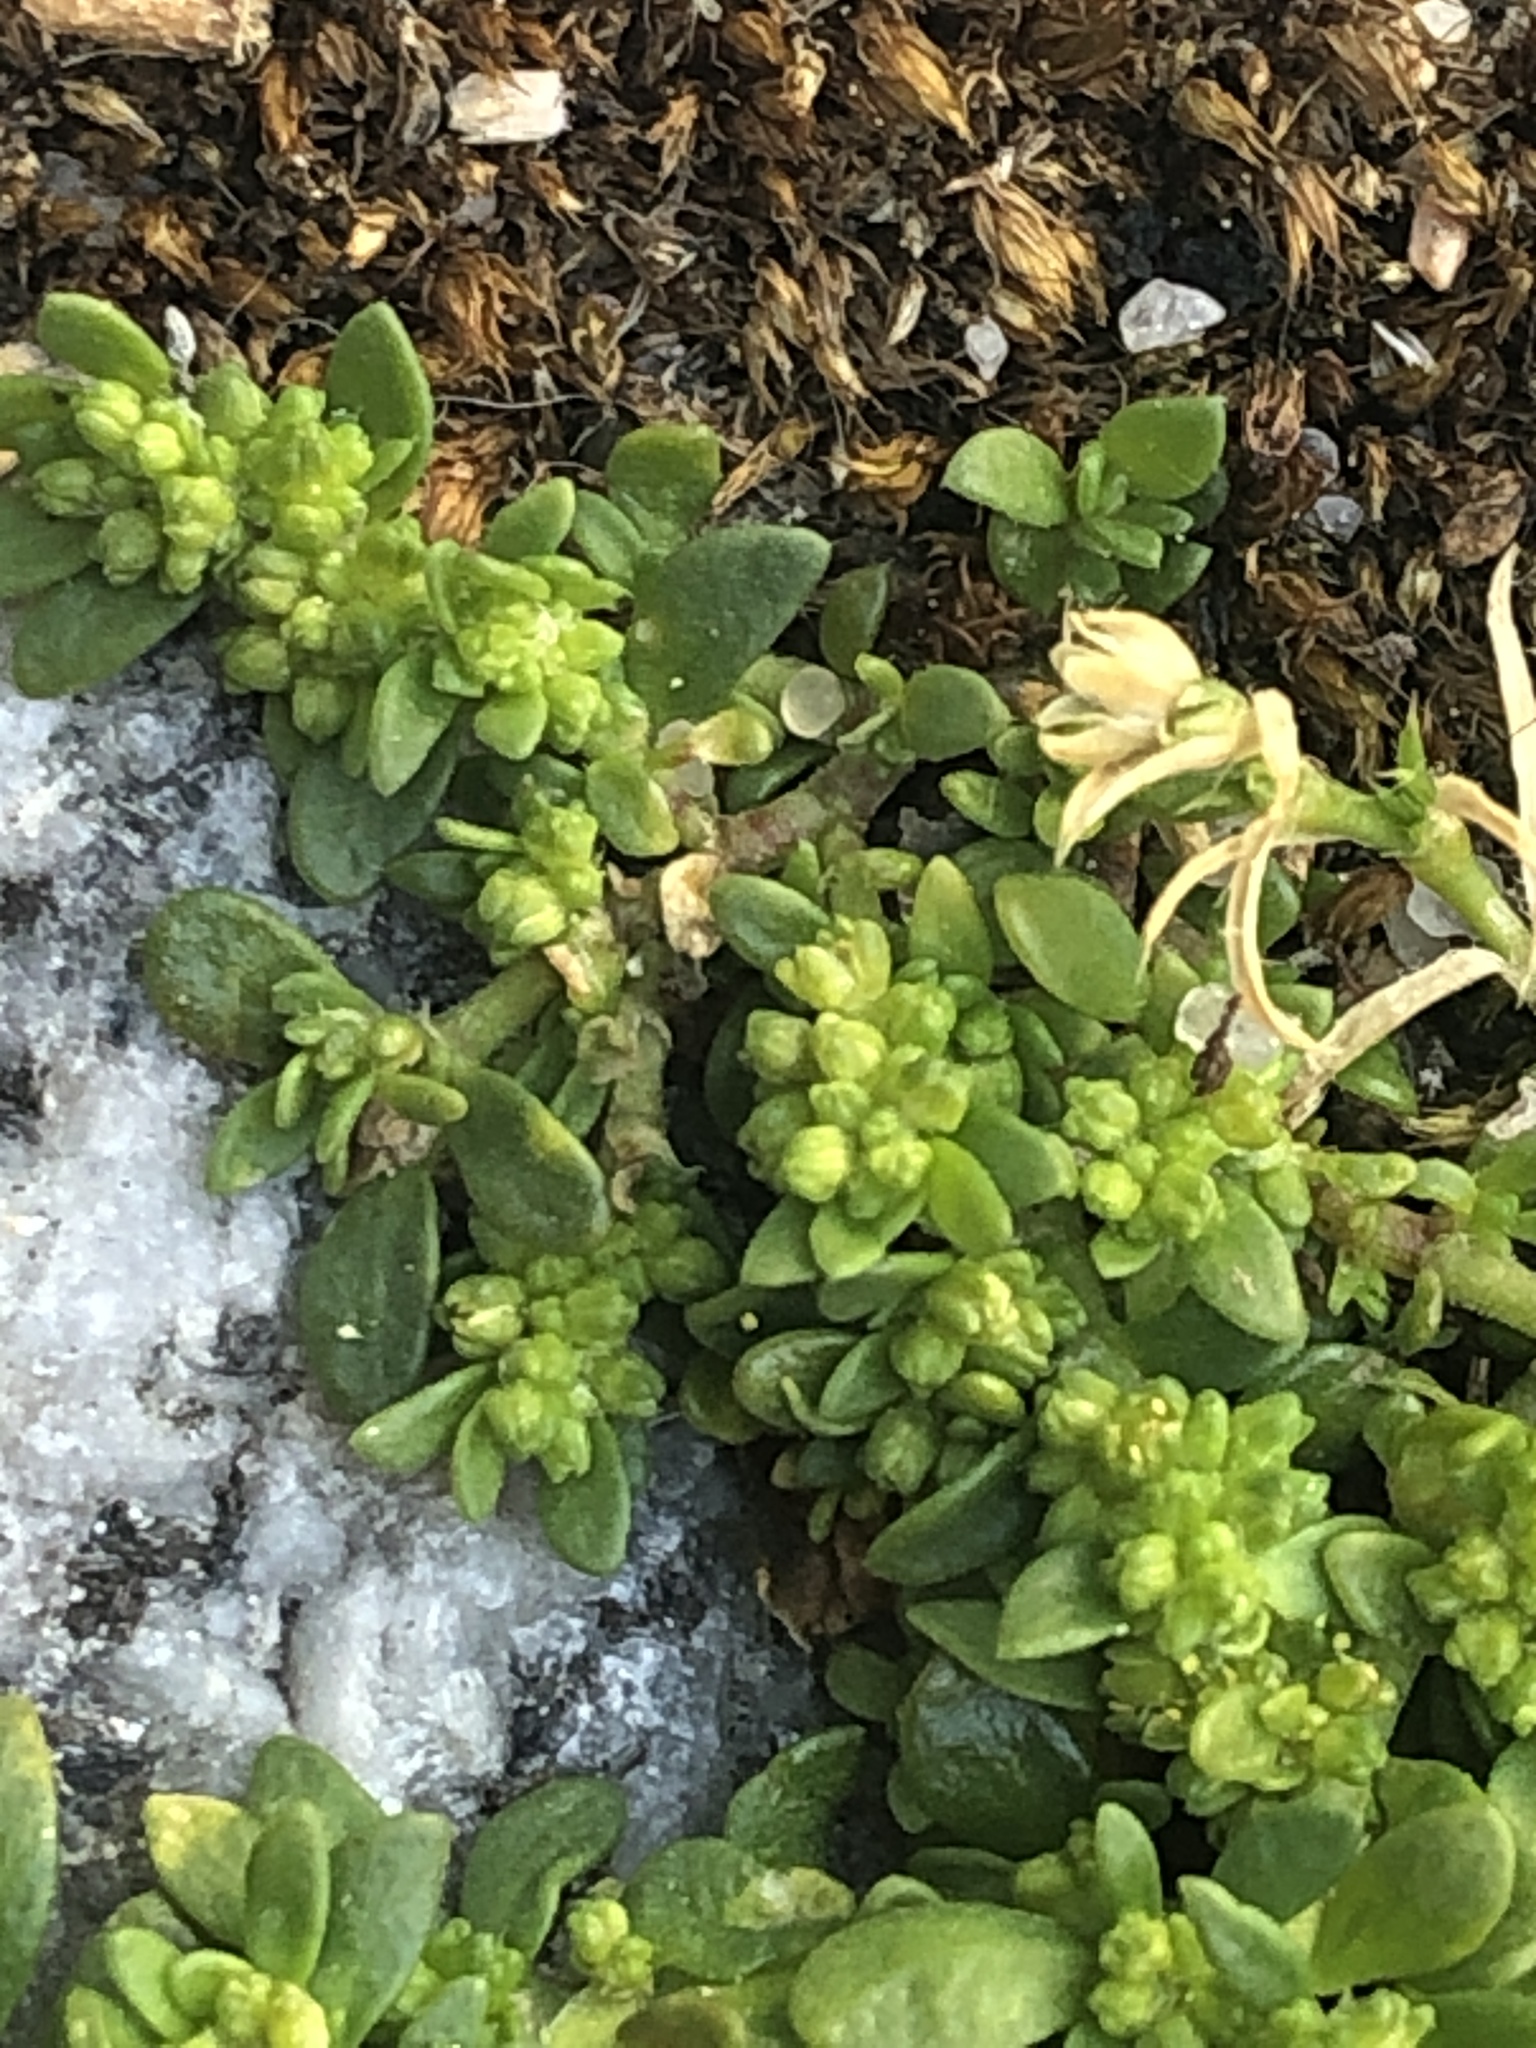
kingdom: Plantae
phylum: Tracheophyta
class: Magnoliopsida
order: Caryophyllales
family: Caryophyllaceae
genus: Herniaria
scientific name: Herniaria glabra
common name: Smooth rupturewort
